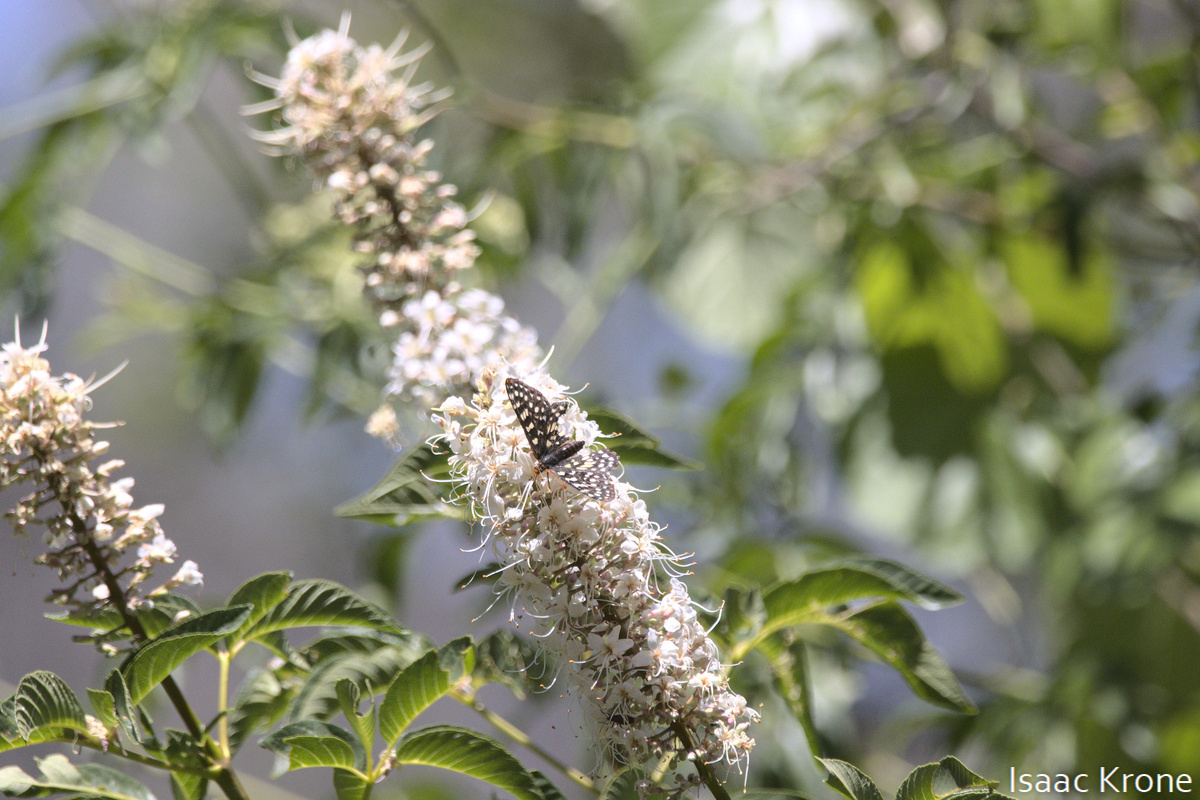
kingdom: Animalia
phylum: Arthropoda
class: Insecta
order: Lepidoptera
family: Nymphalidae
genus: Occidryas
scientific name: Occidryas chalcedona
